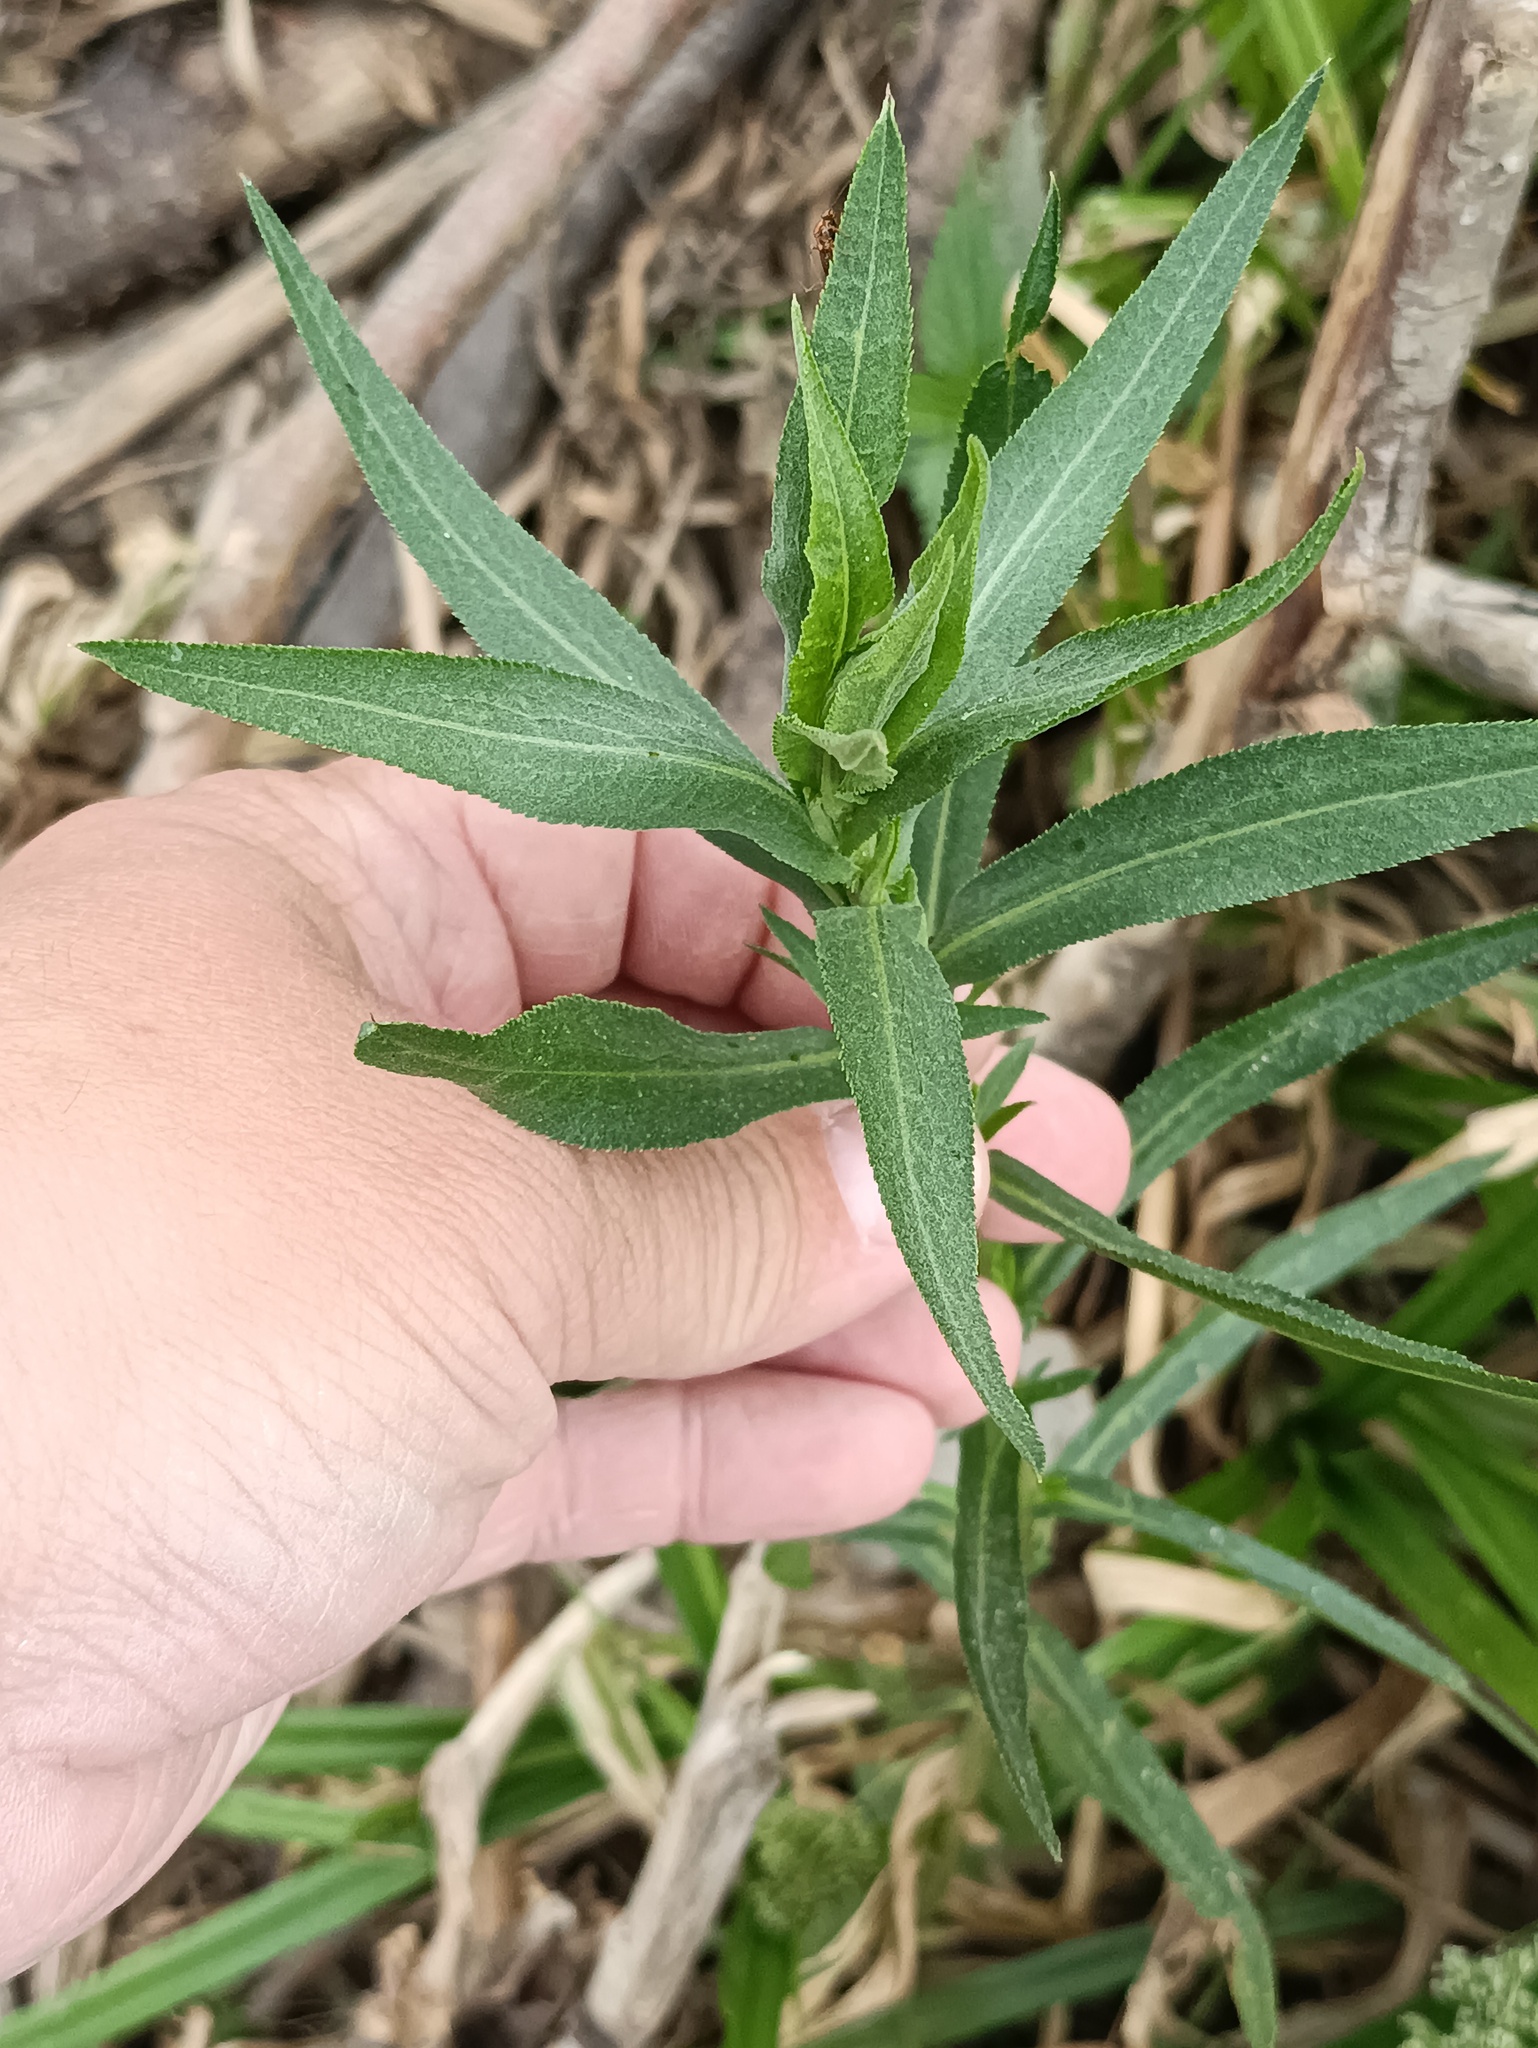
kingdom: Plantae
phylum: Tracheophyta
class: Magnoliopsida
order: Asterales
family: Asteraceae
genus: Achillea
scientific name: Achillea salicifolia
